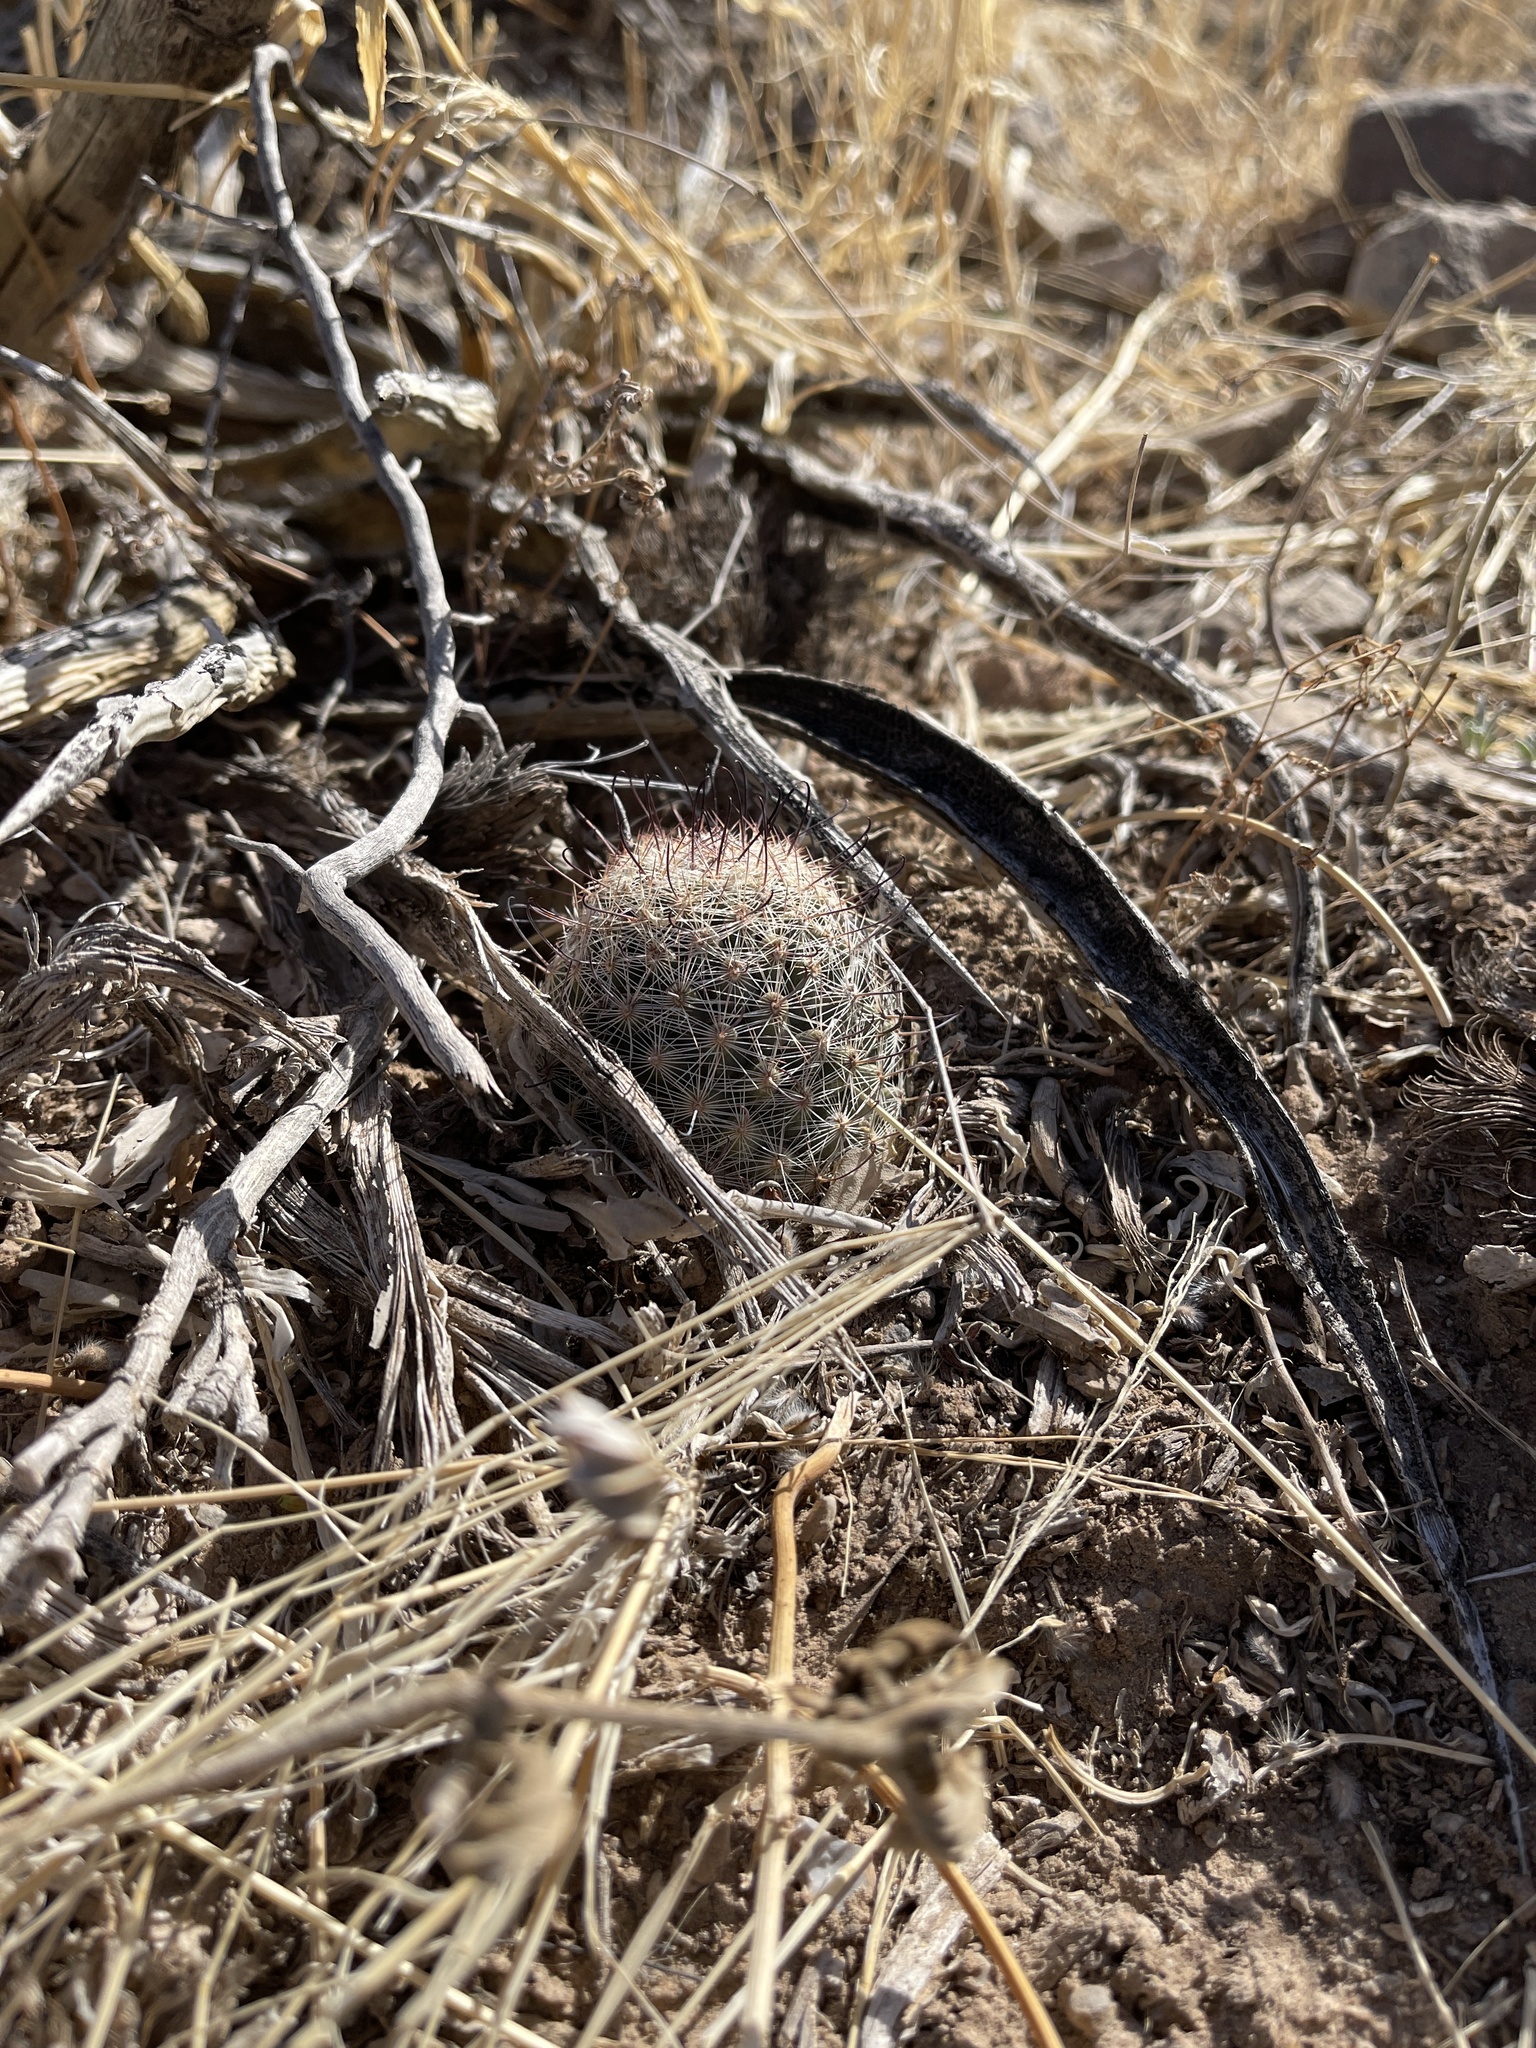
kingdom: Plantae
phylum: Tracheophyta
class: Magnoliopsida
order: Caryophyllales
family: Cactaceae
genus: Cochemiea
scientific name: Cochemiea grahamii
